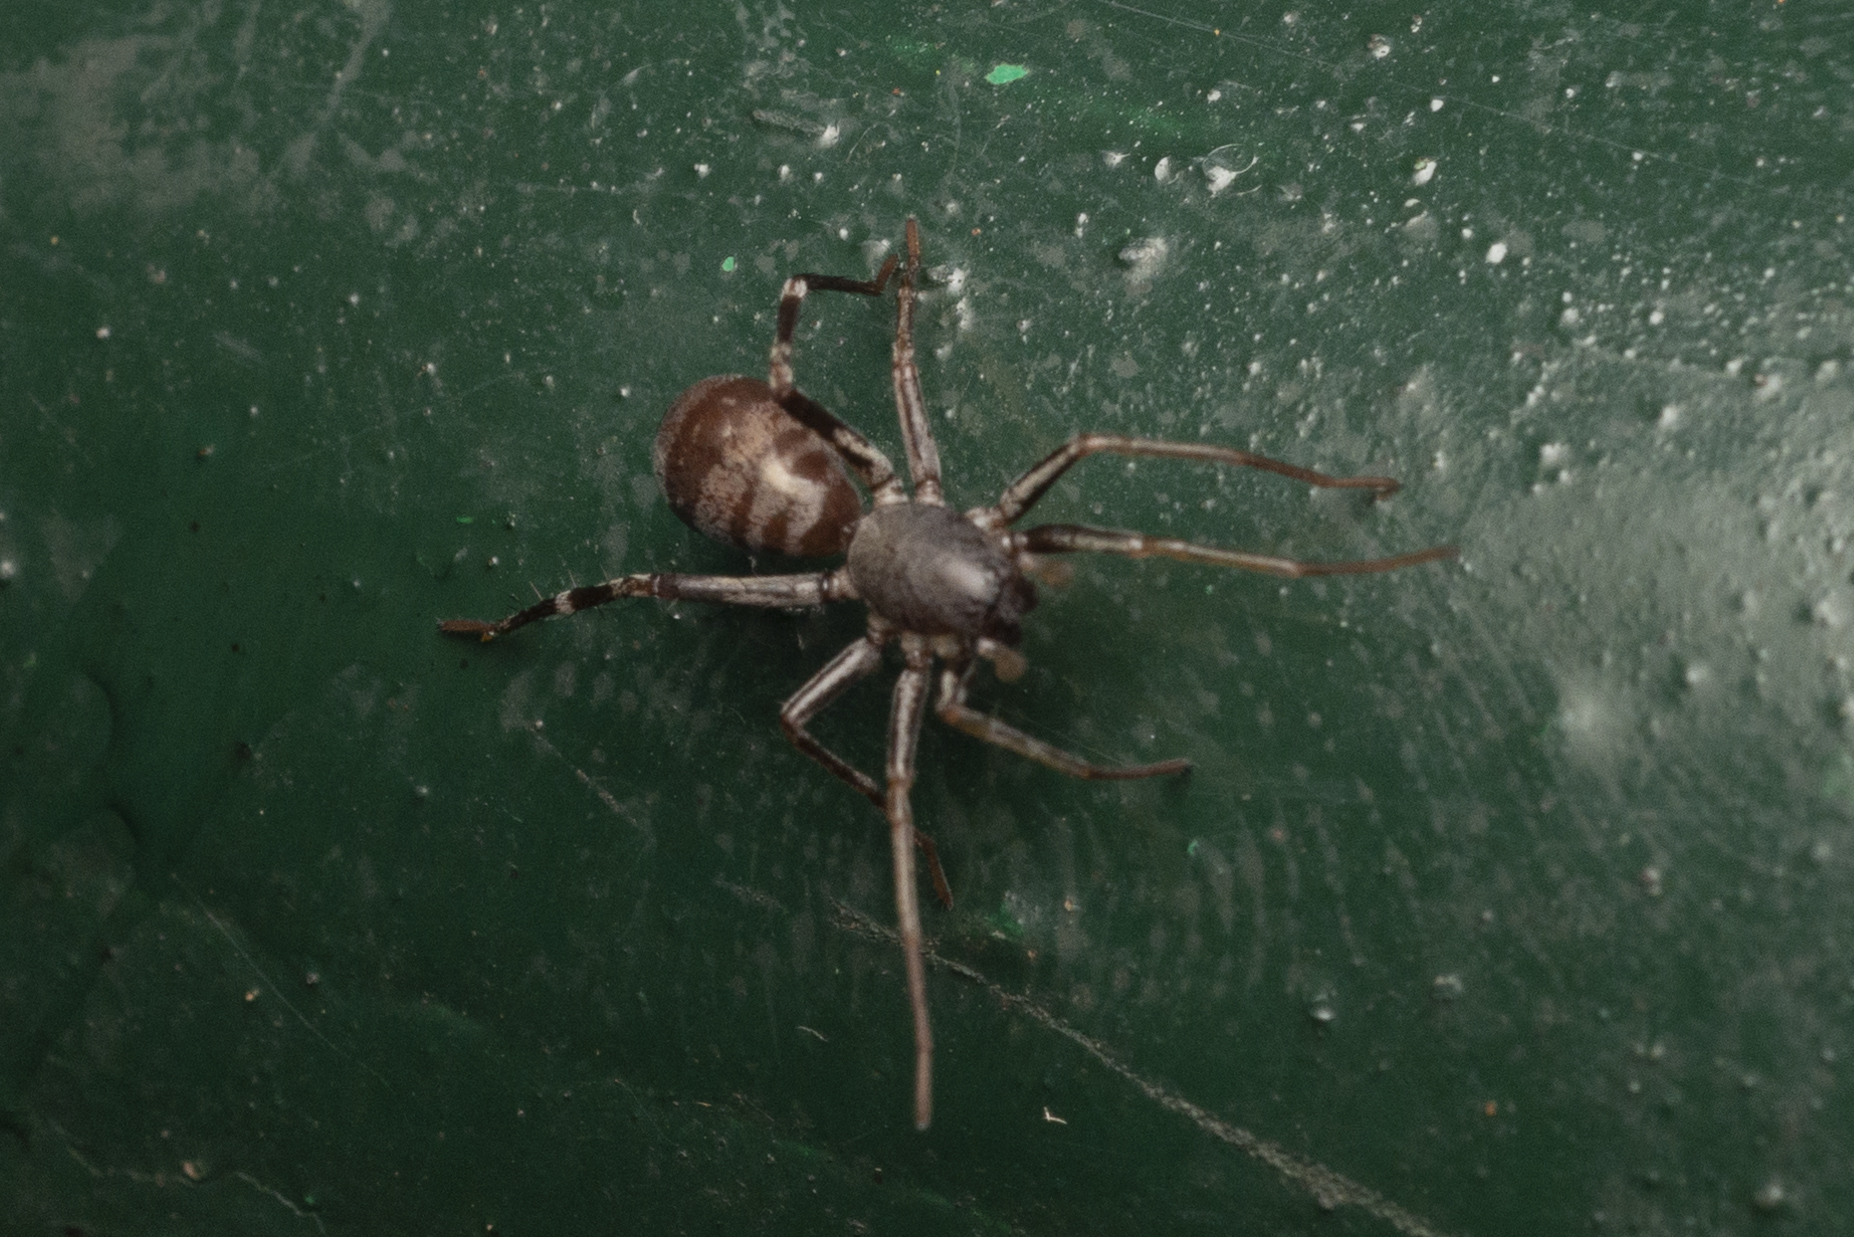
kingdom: Animalia
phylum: Arthropoda
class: Arachnida
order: Araneae
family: Corinnidae
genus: Corinnomma
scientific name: Corinnomma severum
